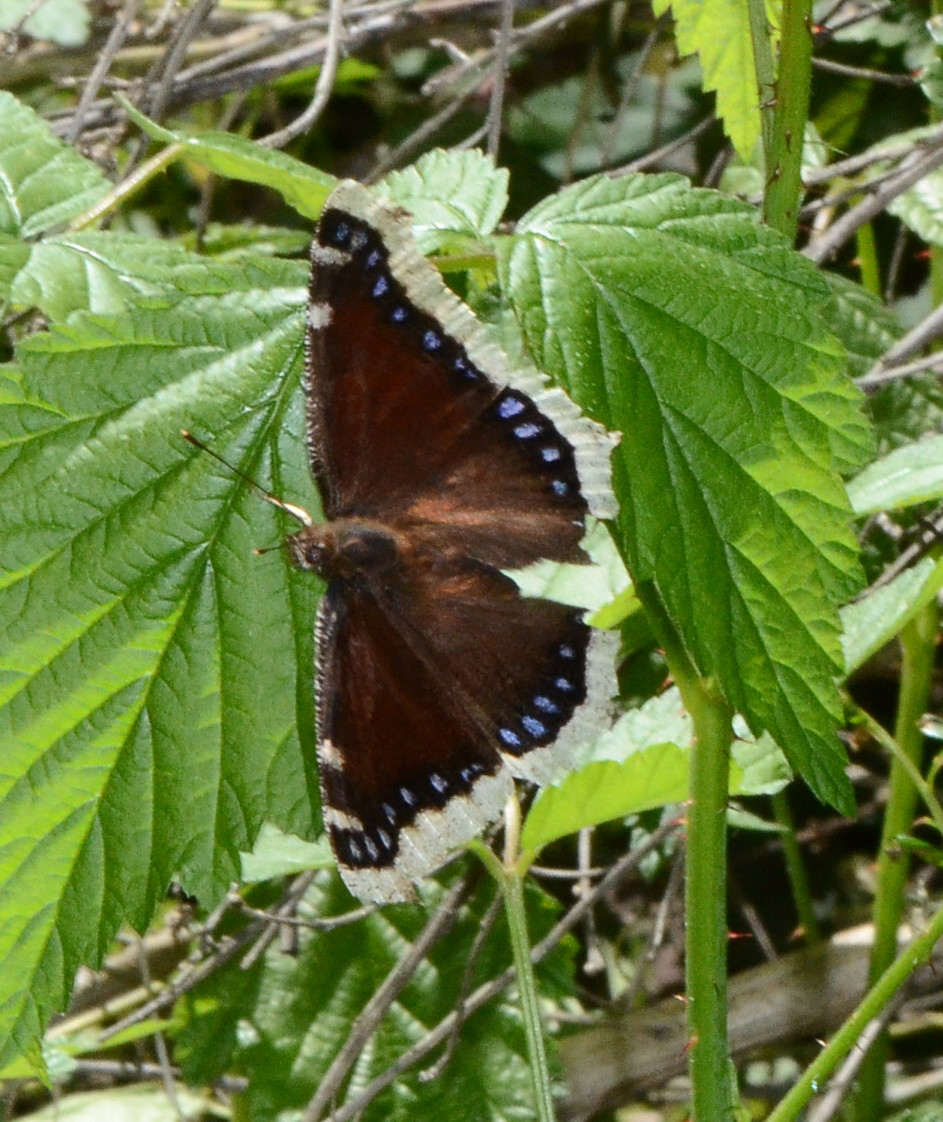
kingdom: Animalia
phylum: Arthropoda
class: Insecta
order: Lepidoptera
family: Nymphalidae
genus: Nymphalis
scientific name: Nymphalis antiopa
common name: Camberwell beauty
